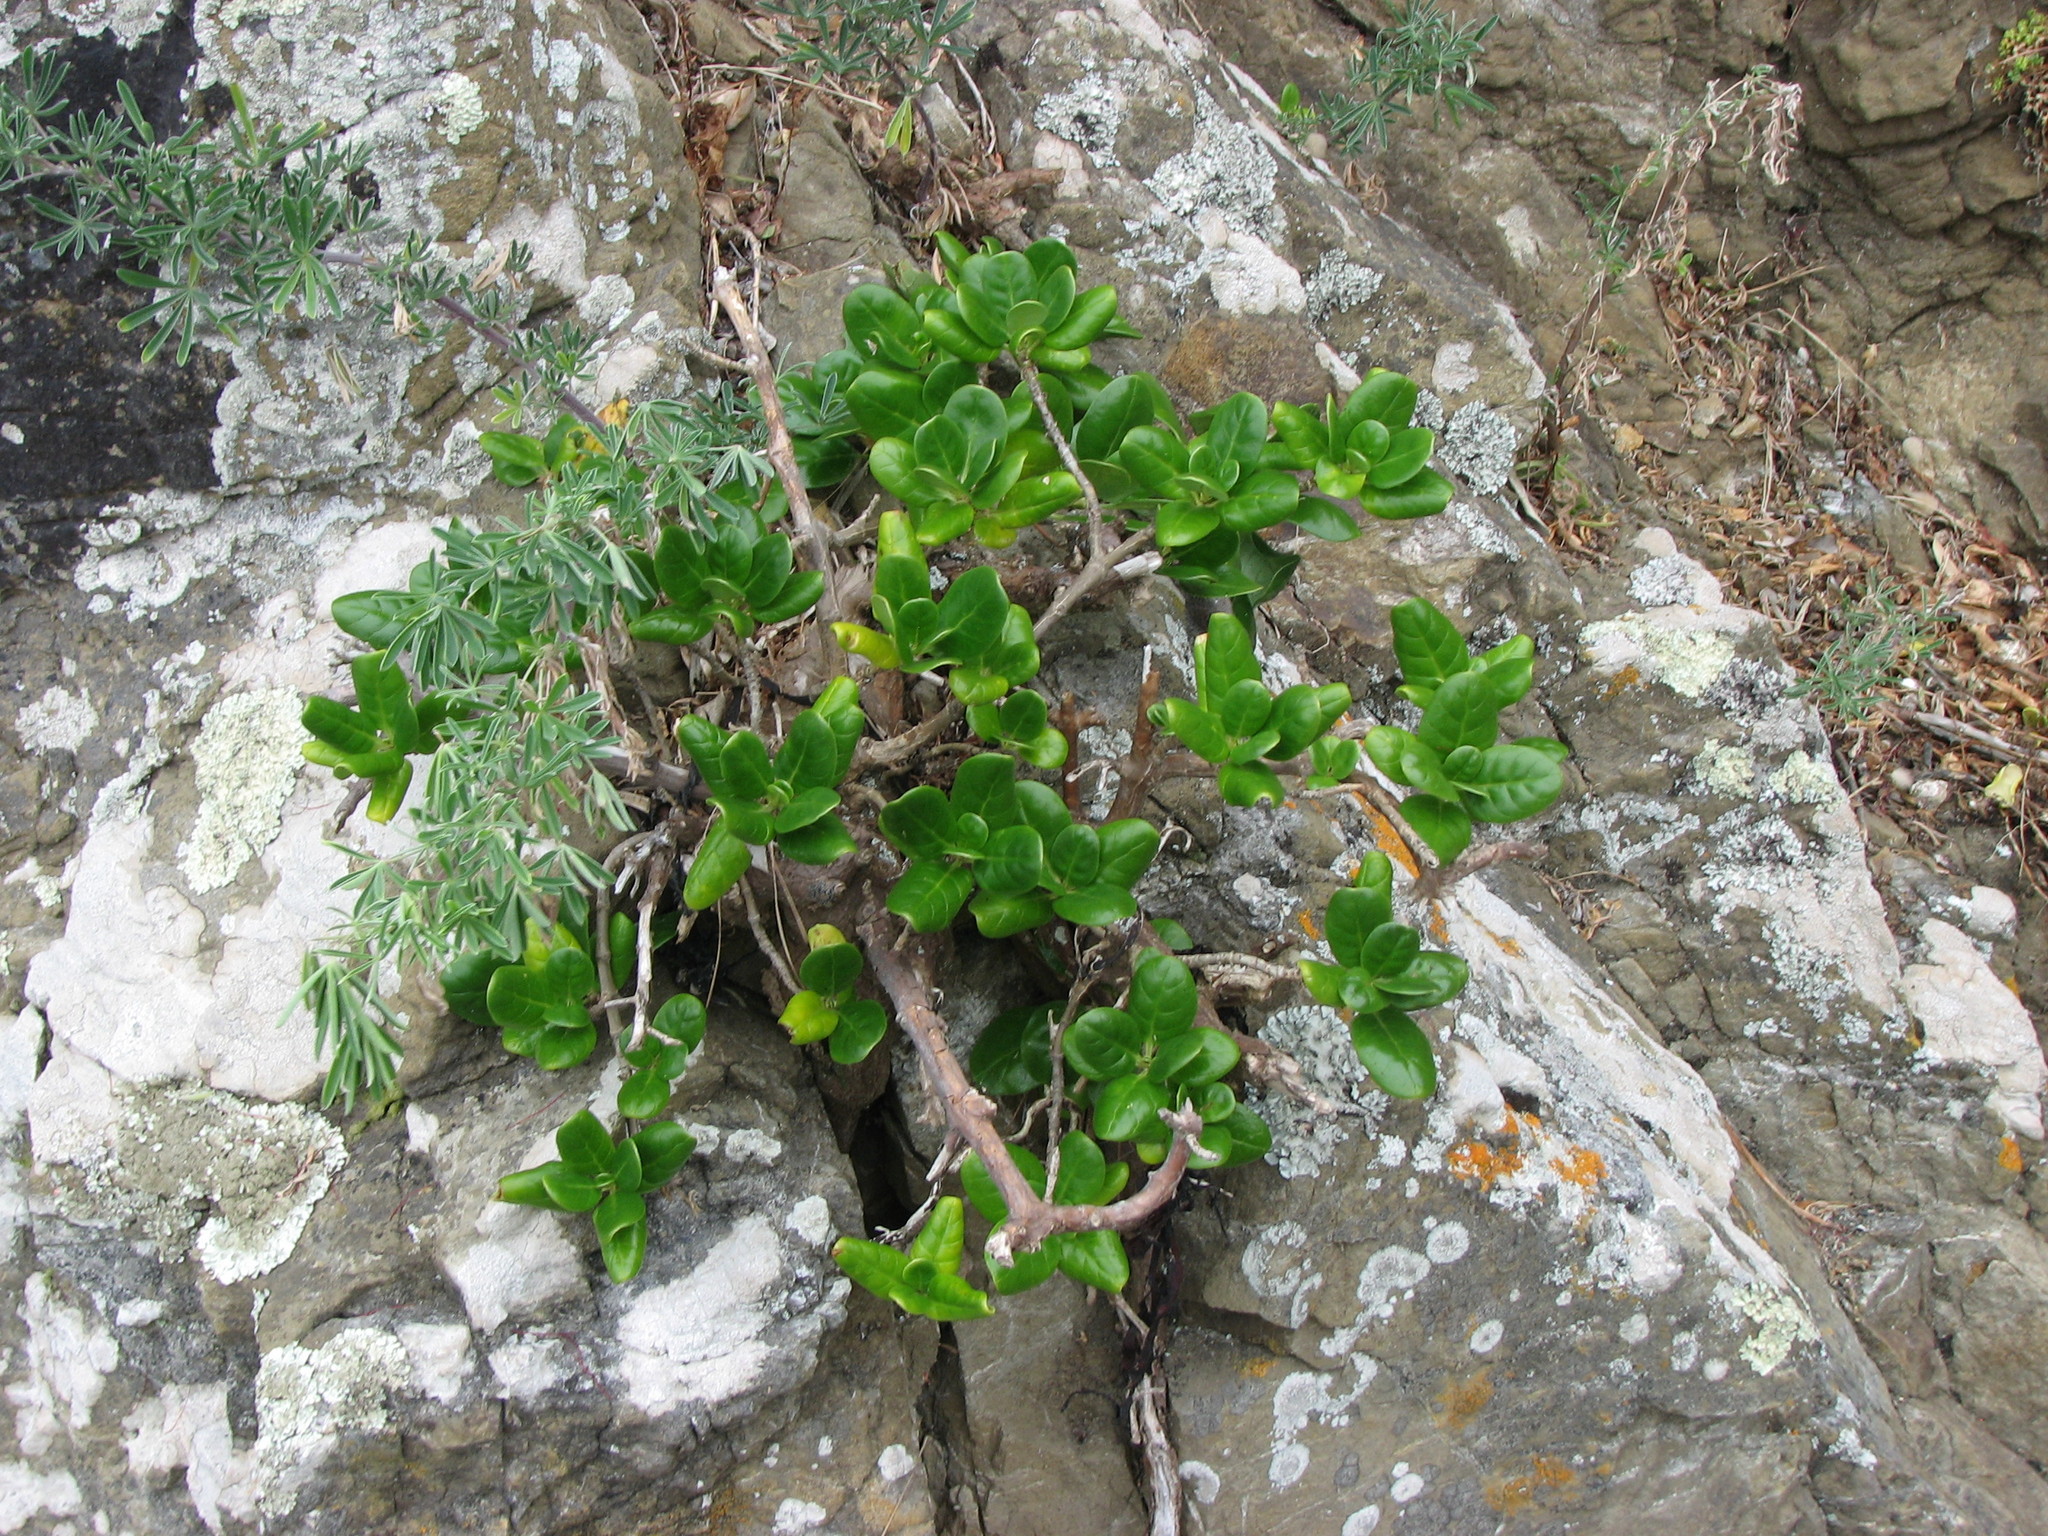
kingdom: Plantae
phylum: Tracheophyta
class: Magnoliopsida
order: Gentianales
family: Rubiaceae
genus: Coprosma
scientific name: Coprosma repens
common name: Tree bedstraw
